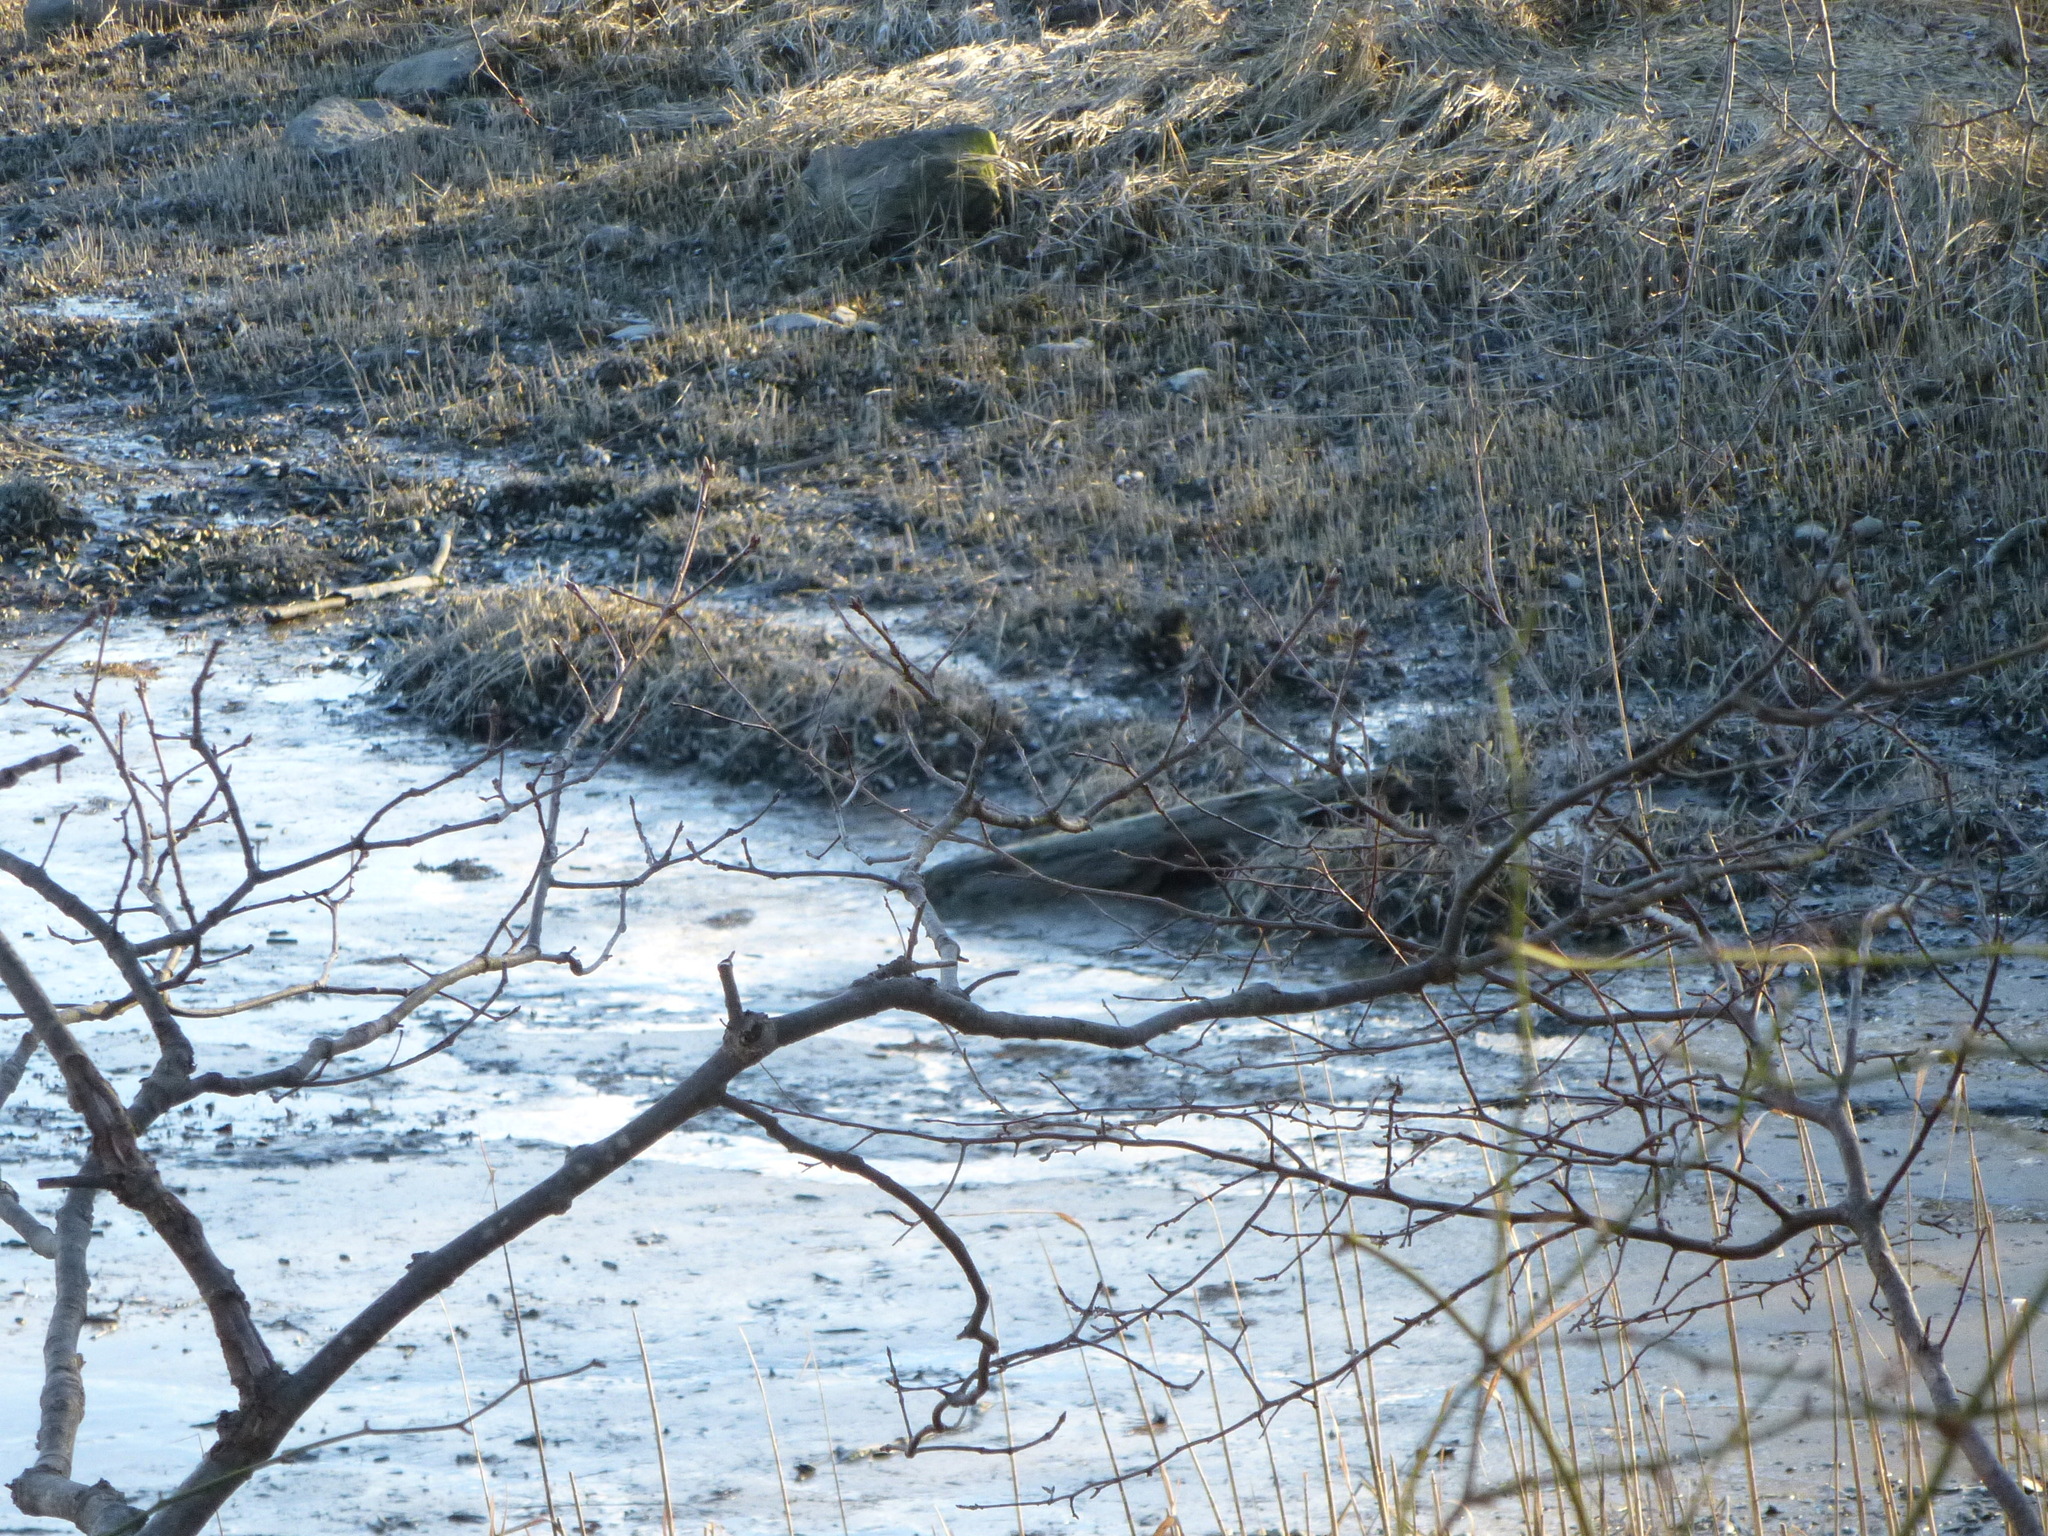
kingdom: Animalia
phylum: Mollusca
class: Bivalvia
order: Mytilida
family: Mytilidae
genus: Geukensia
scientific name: Geukensia demissa
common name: Ribbed mussel
